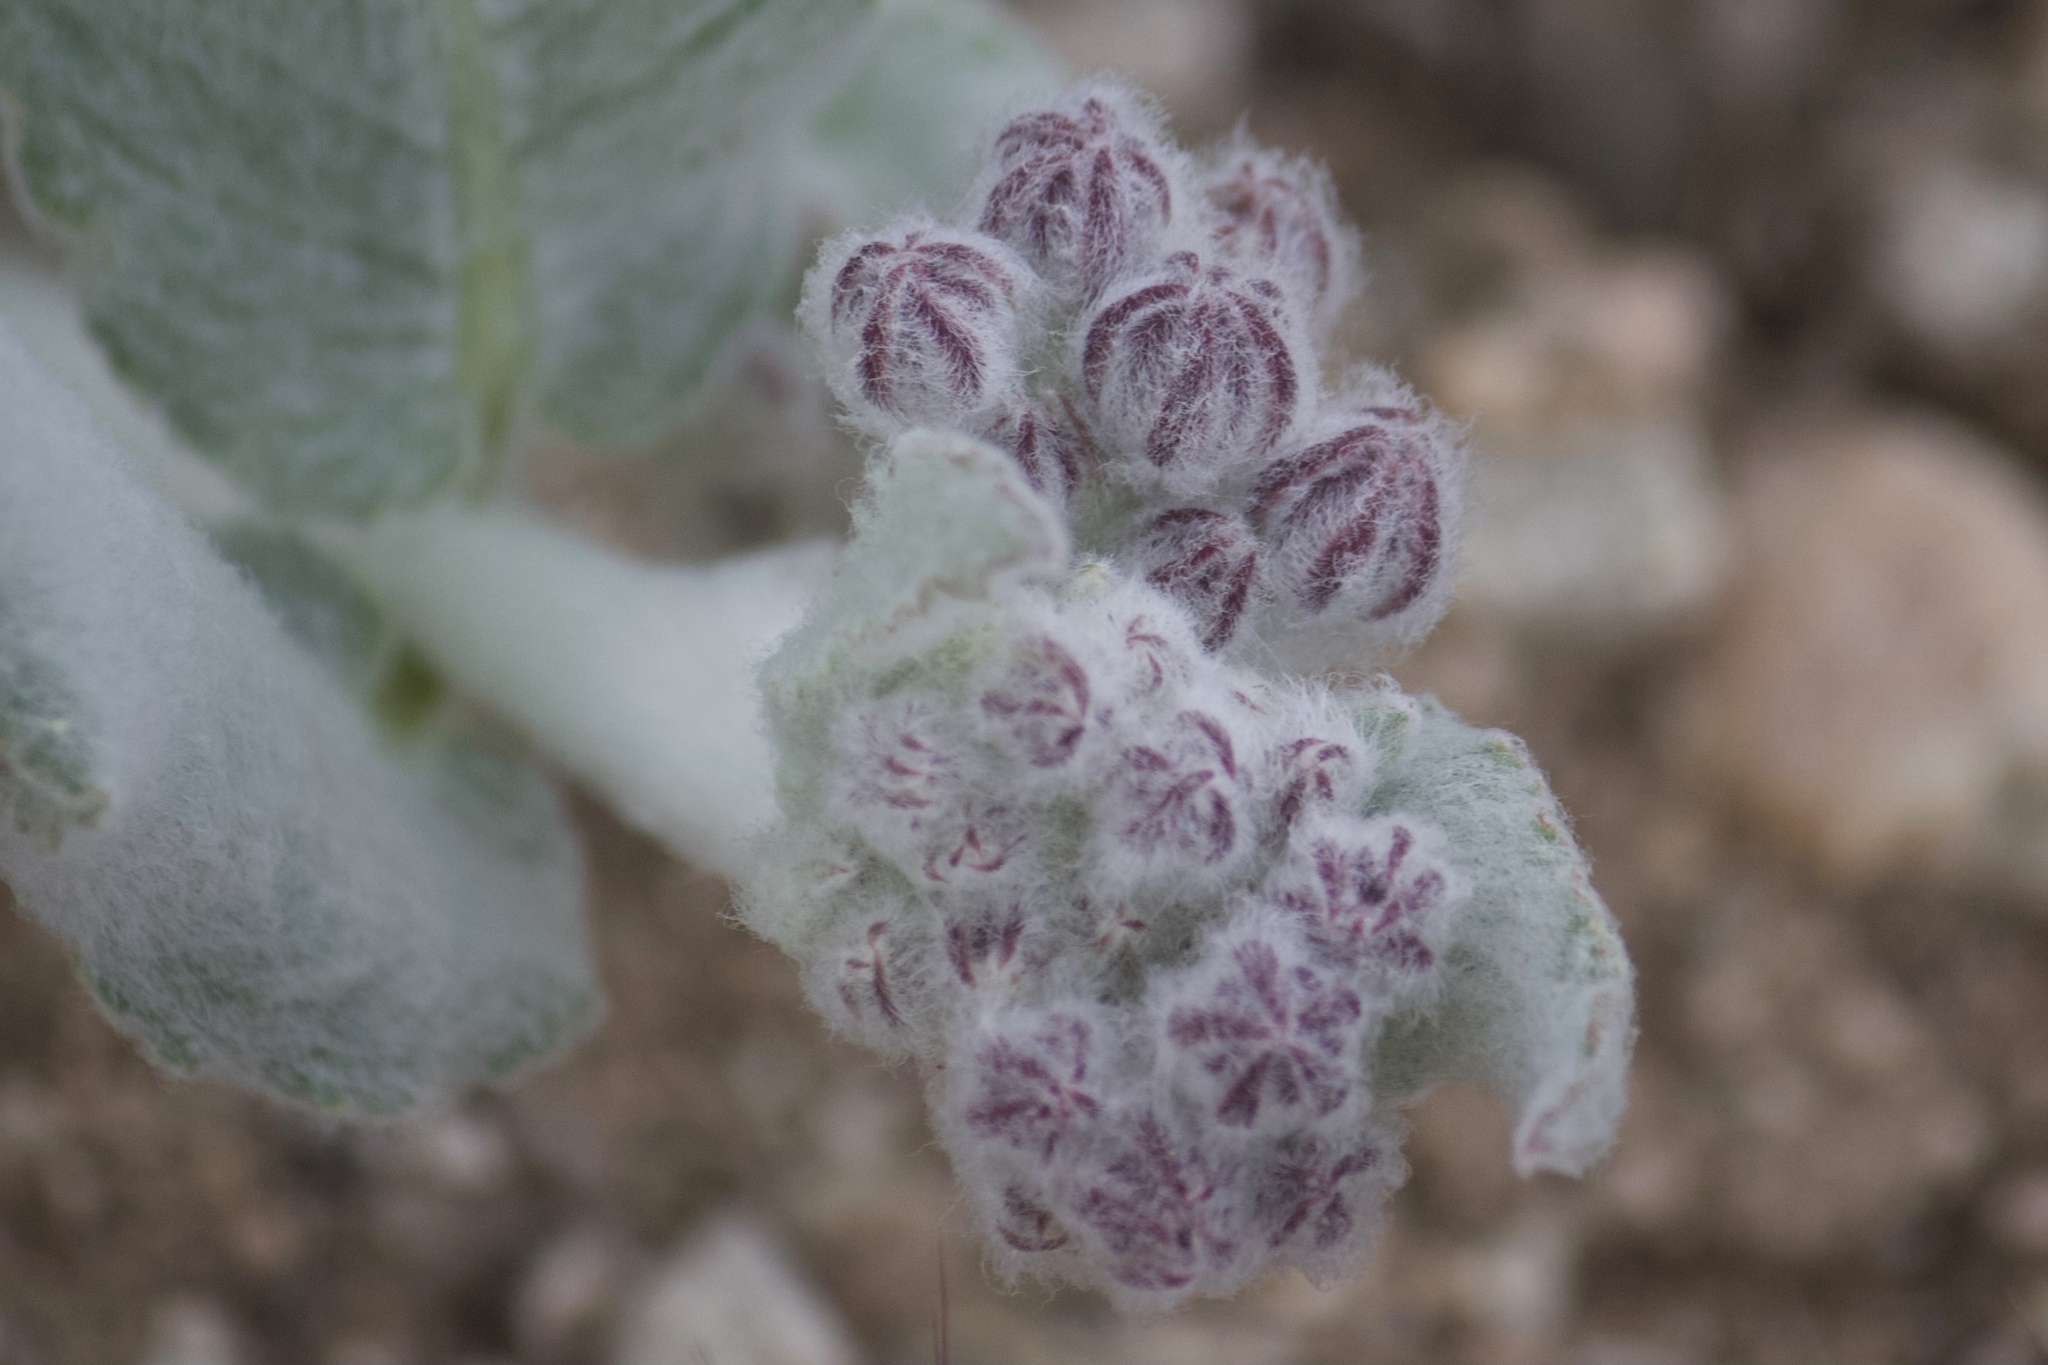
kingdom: Plantae
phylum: Tracheophyta
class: Magnoliopsida
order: Gentianales
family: Apocynaceae
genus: Asclepias
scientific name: Asclepias californica
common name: California milkweed
